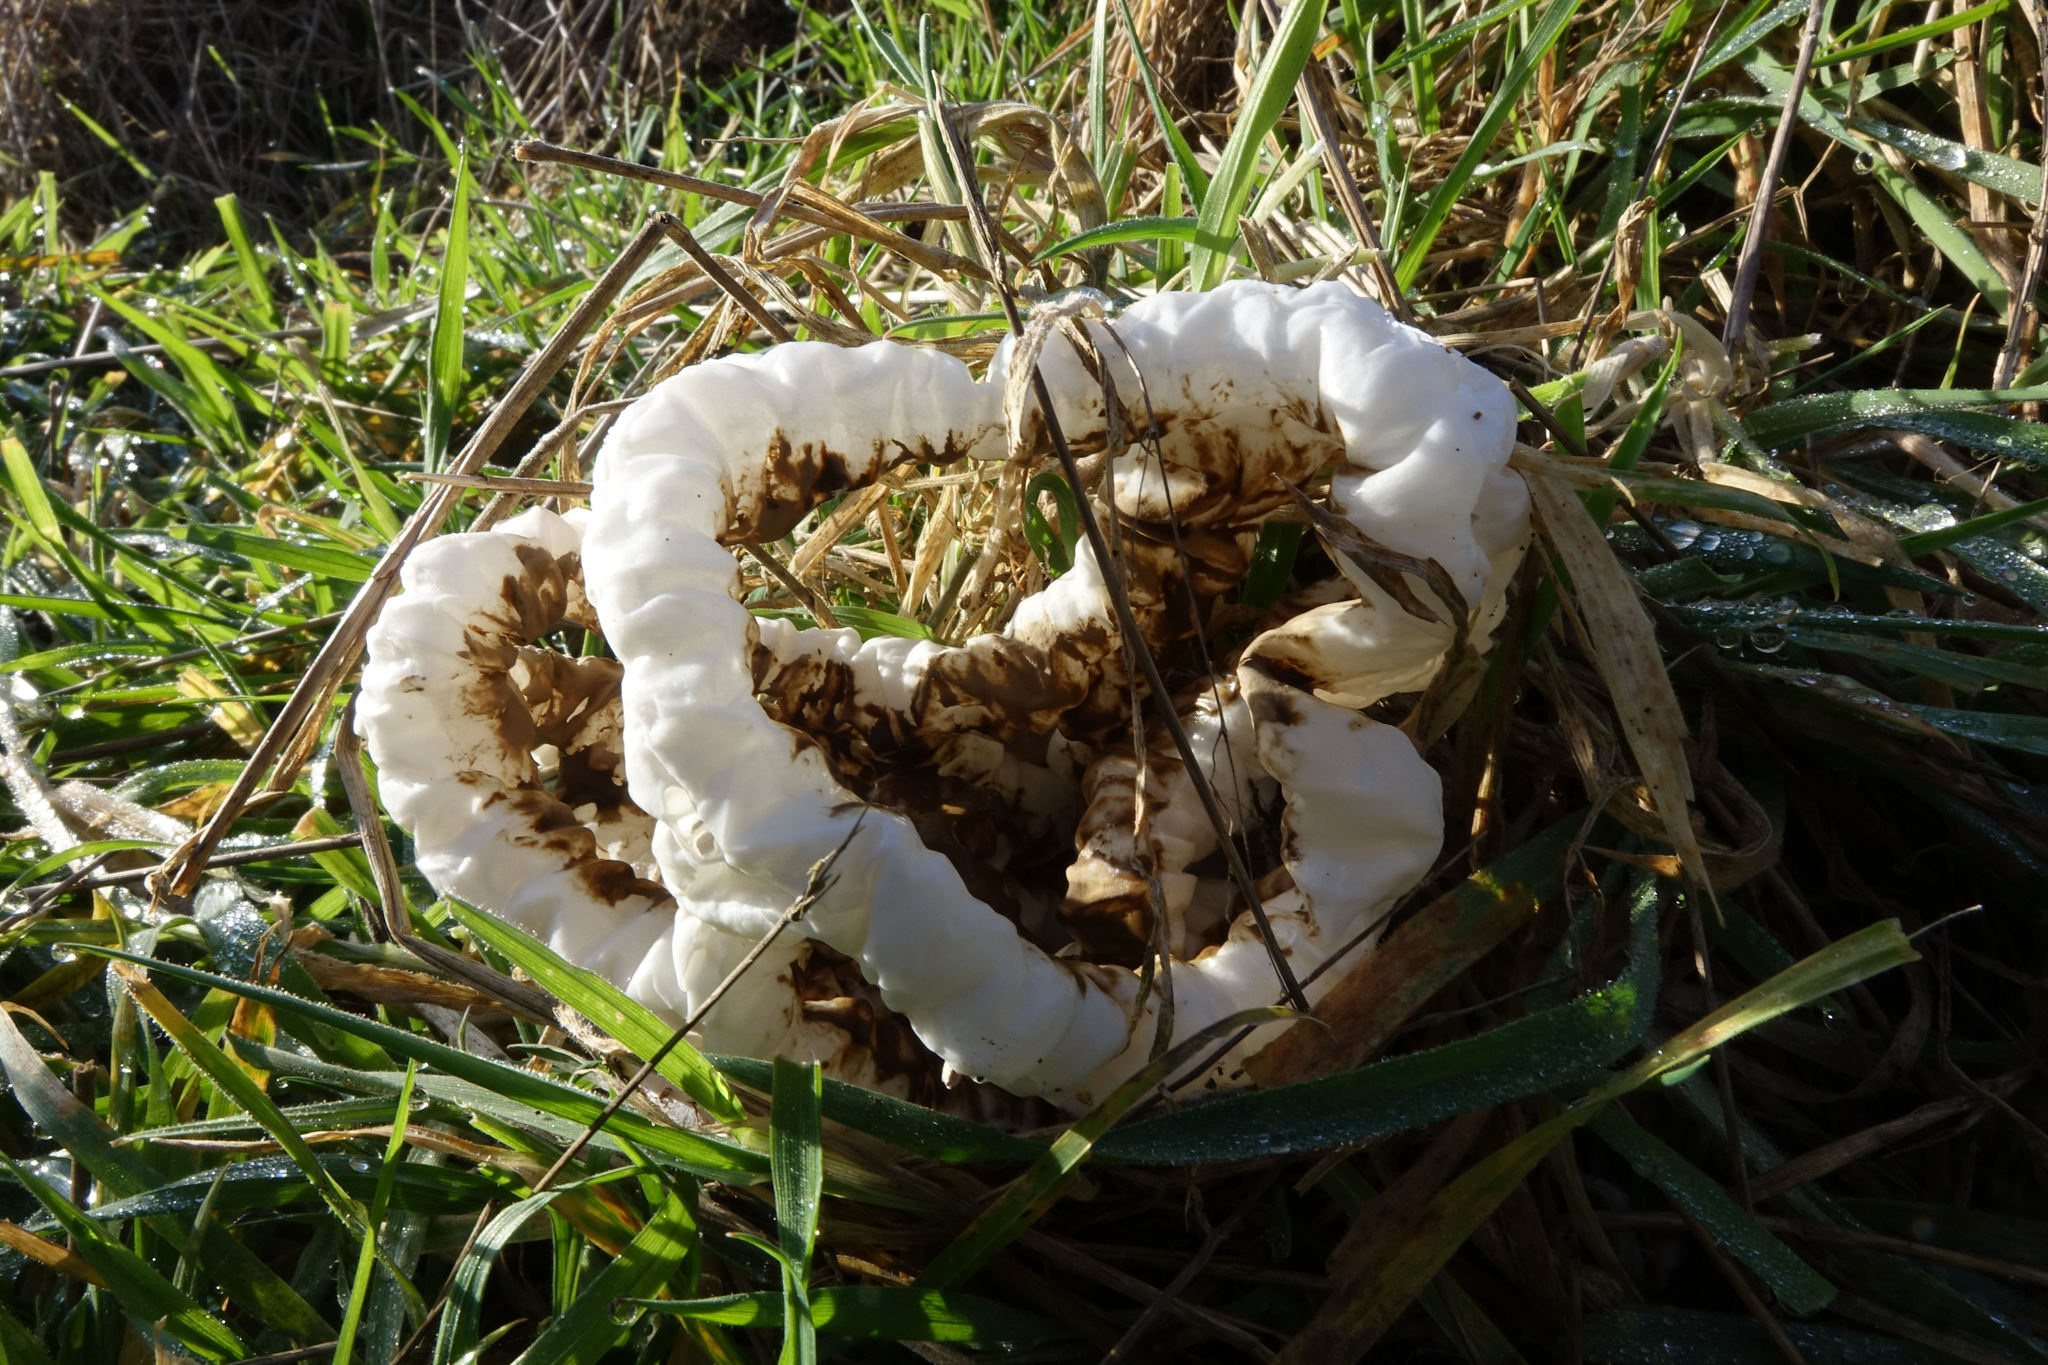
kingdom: Fungi
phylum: Basidiomycota
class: Agaricomycetes
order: Phallales
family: Phallaceae
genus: Ileodictyon
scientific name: Ileodictyon cibarium
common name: Basket fungus
